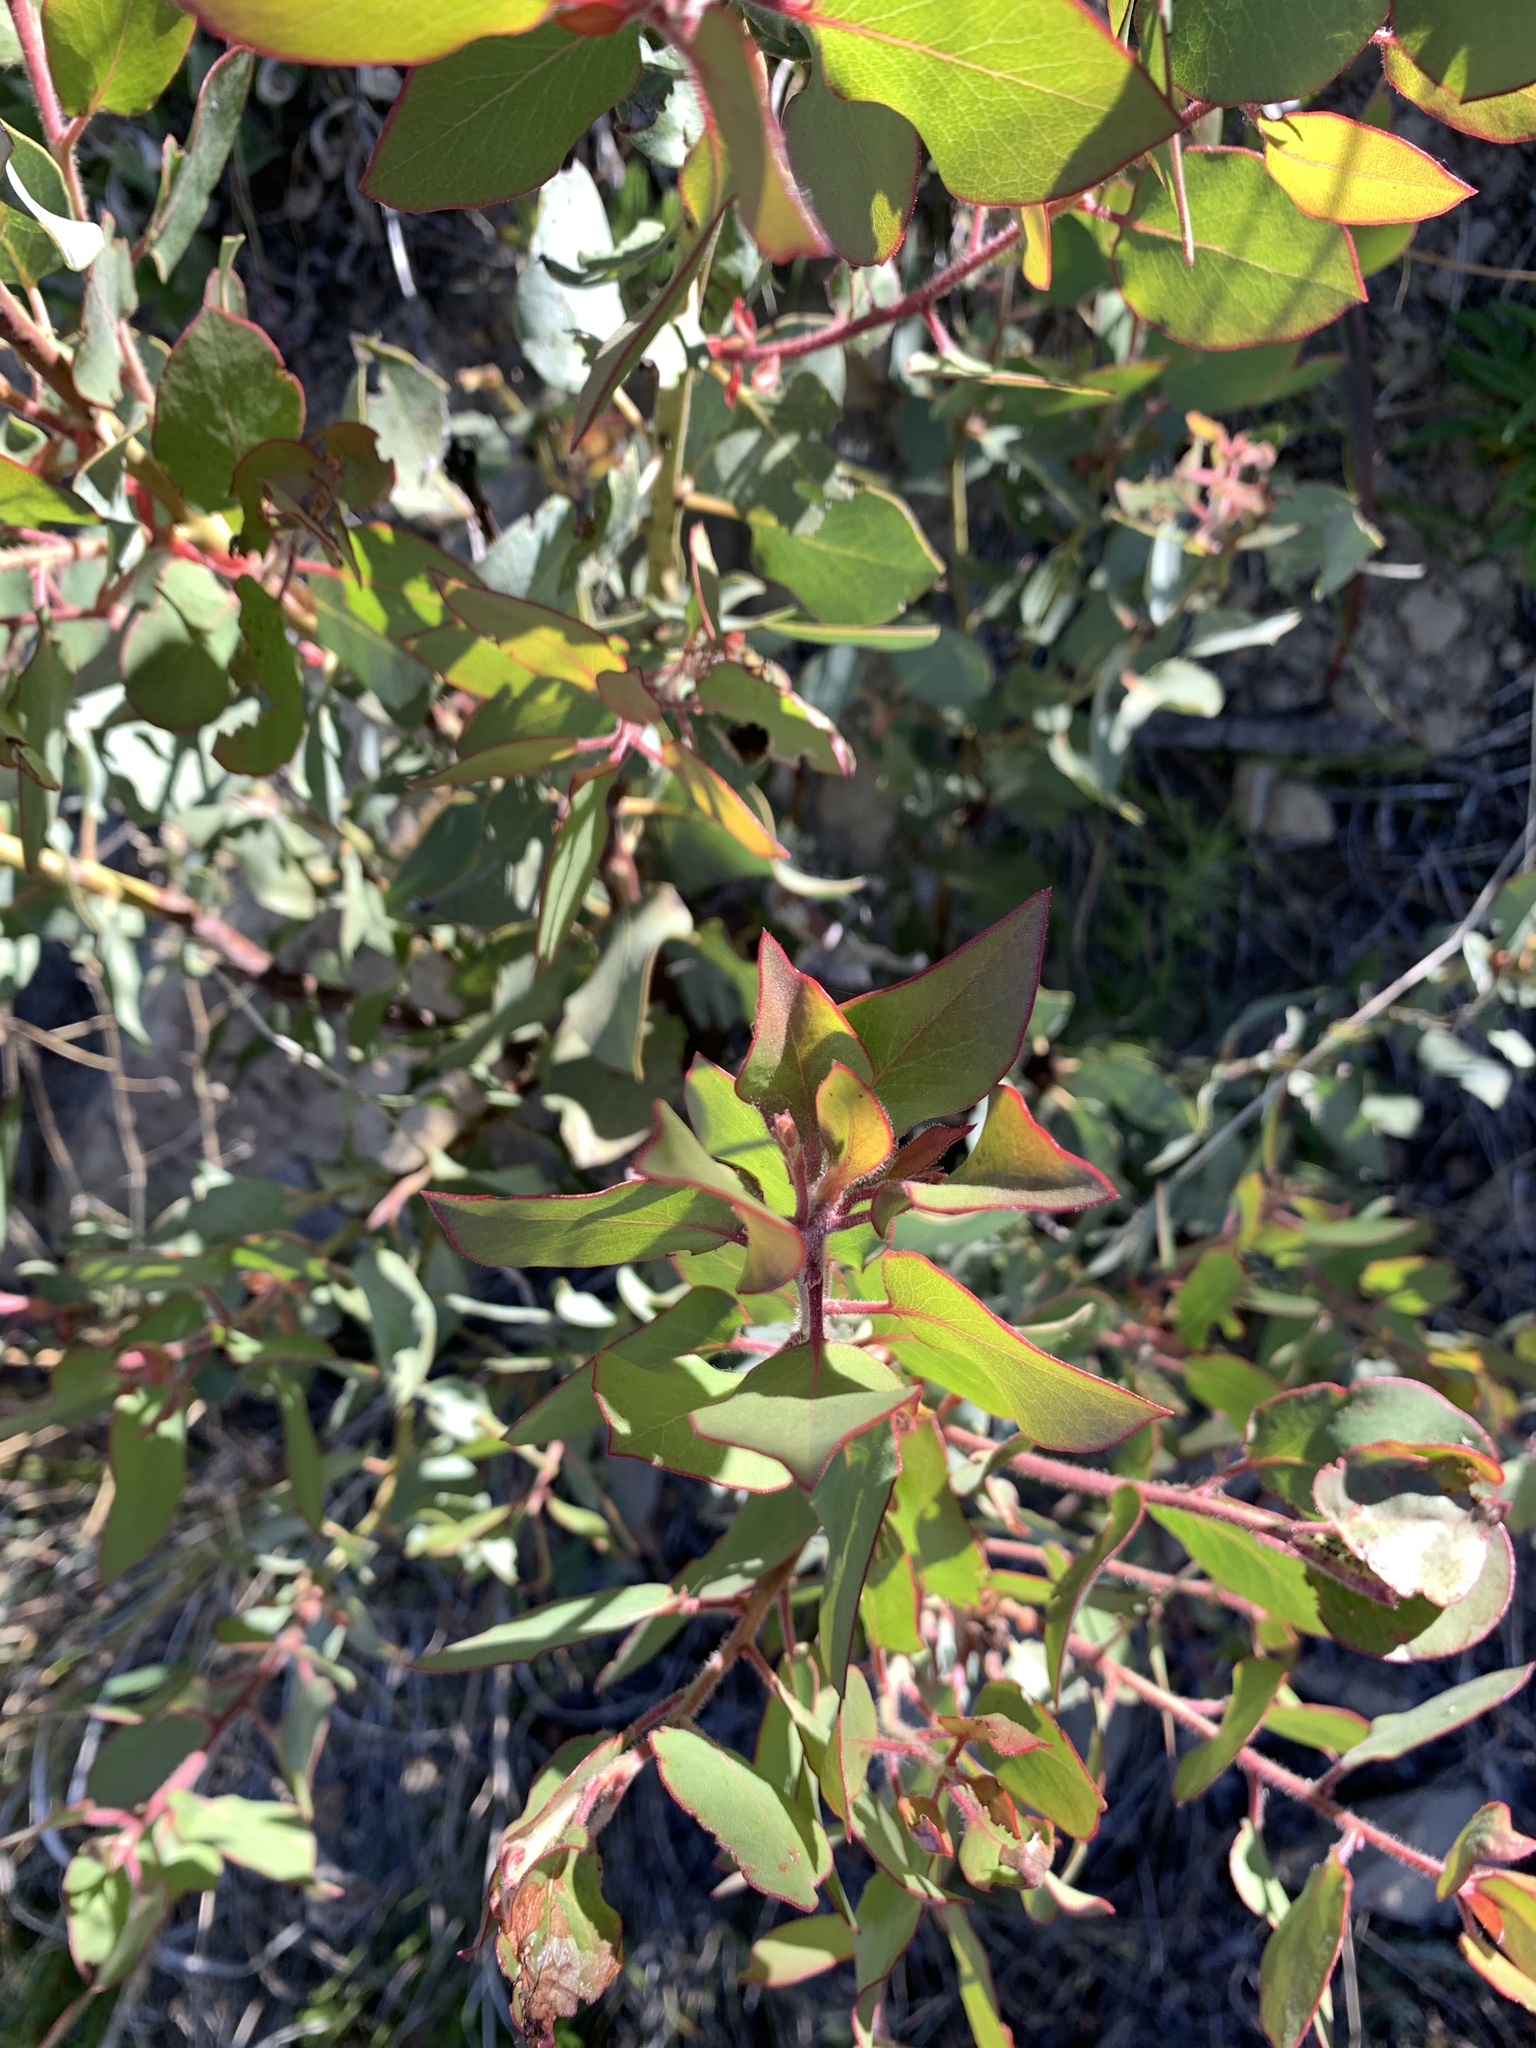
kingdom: Plantae
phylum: Tracheophyta
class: Magnoliopsida
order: Ericales
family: Ericaceae
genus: Arctostaphylos
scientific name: Arctostaphylos glauca
